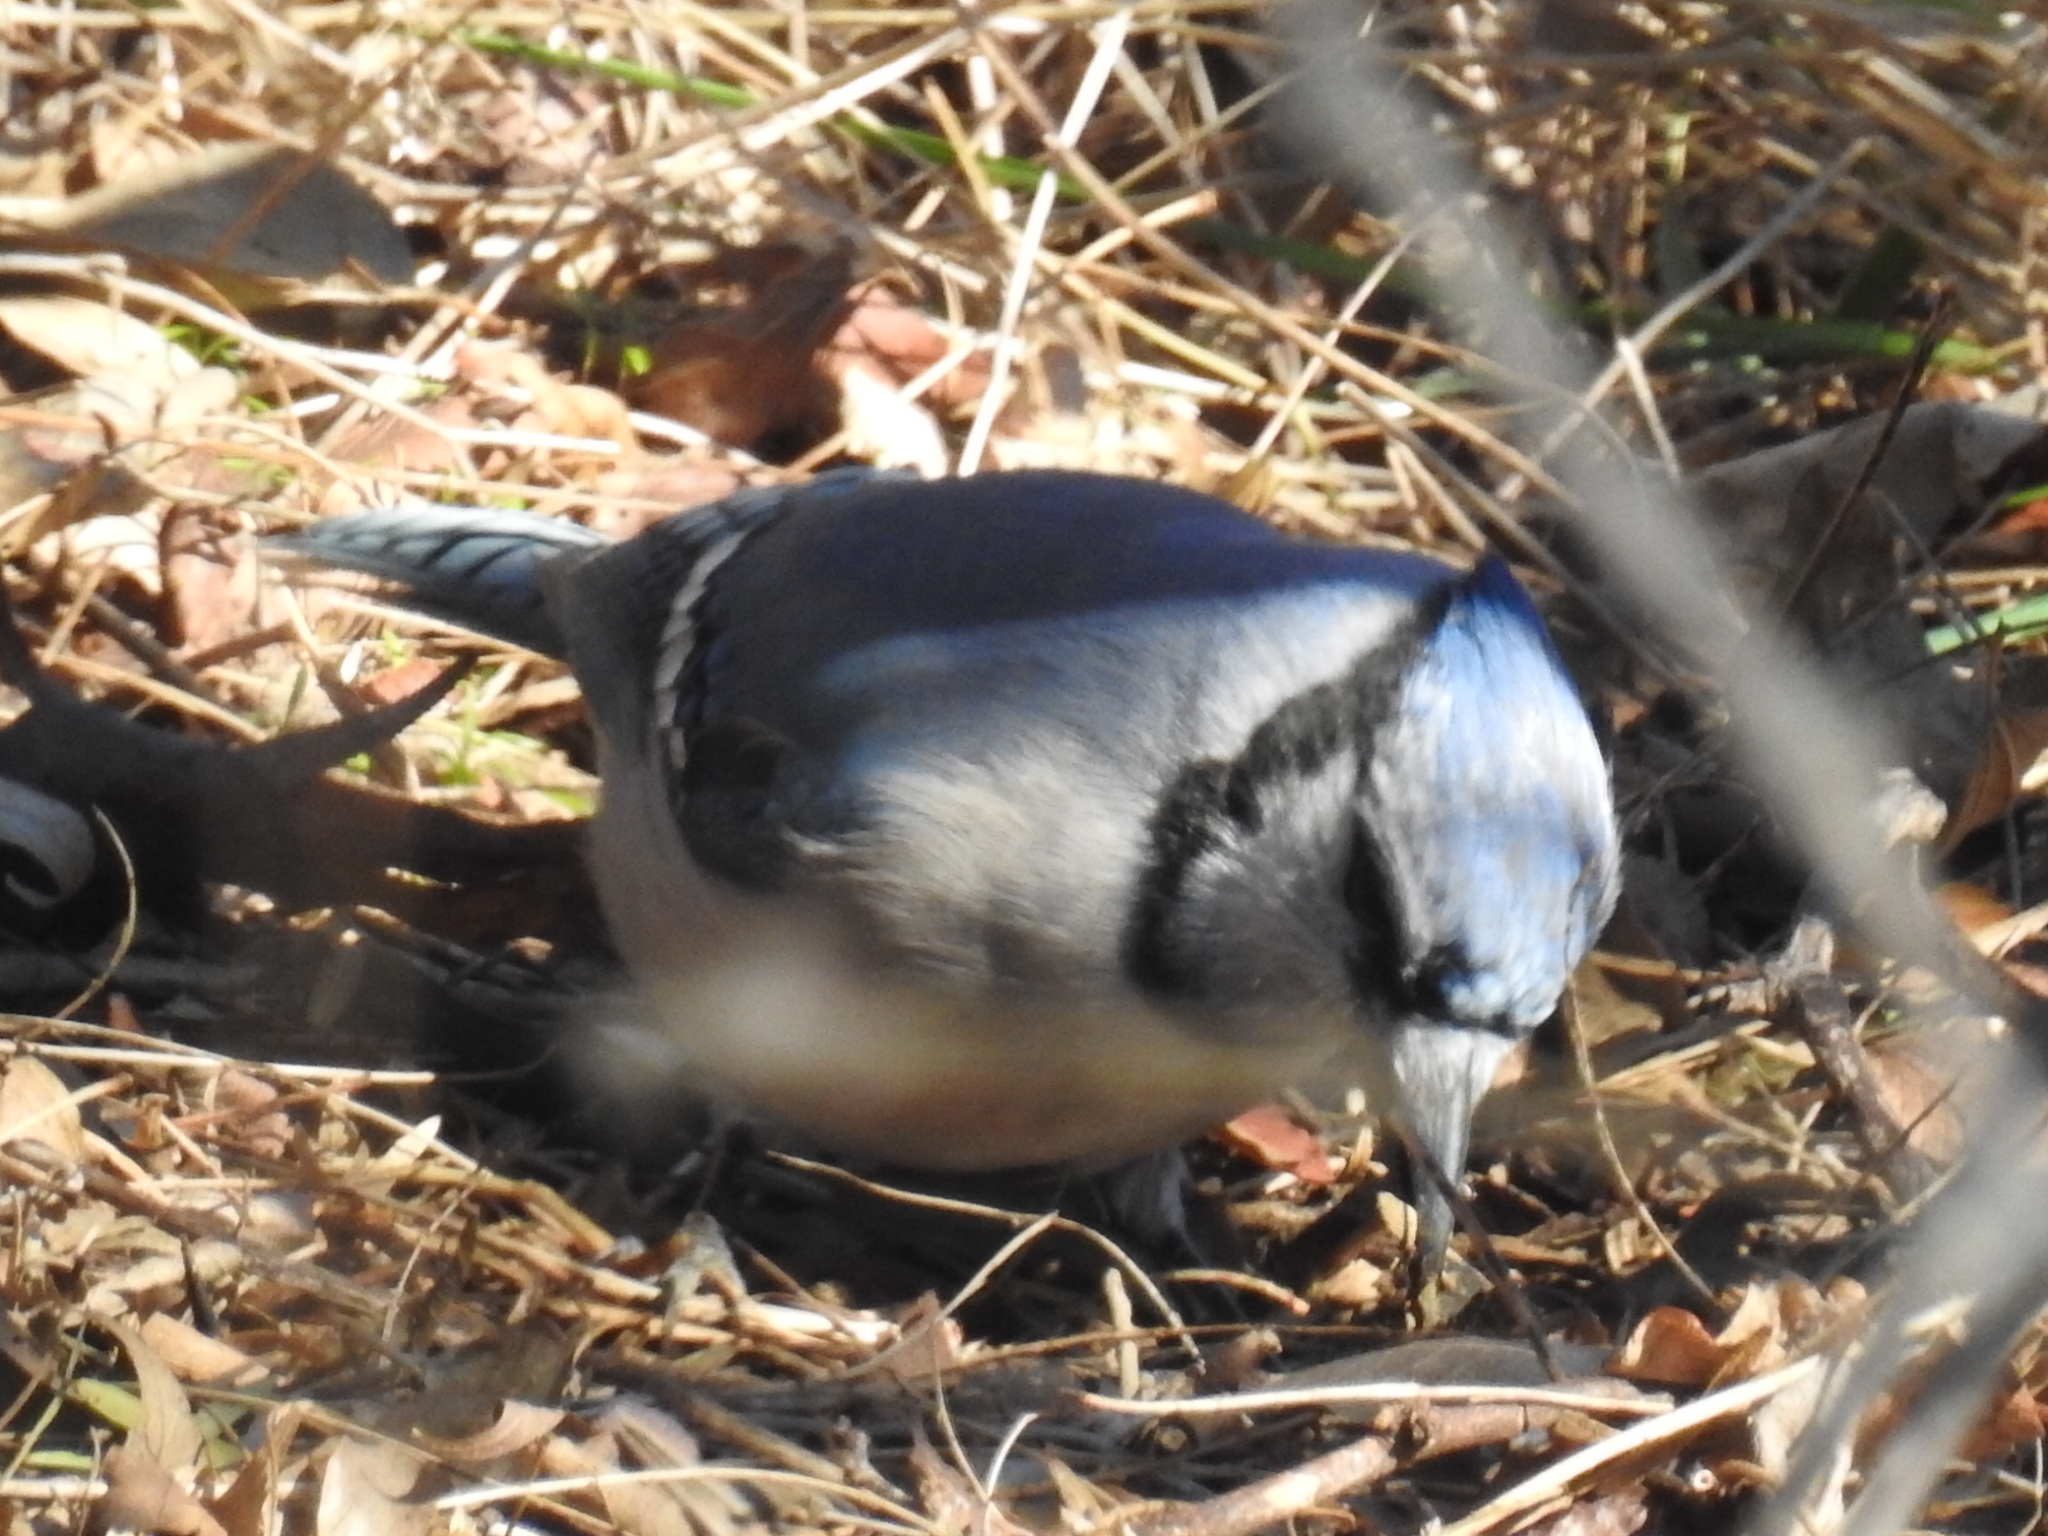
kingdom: Animalia
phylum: Chordata
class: Aves
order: Passeriformes
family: Corvidae
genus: Cyanocitta
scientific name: Cyanocitta cristata
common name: Blue jay
